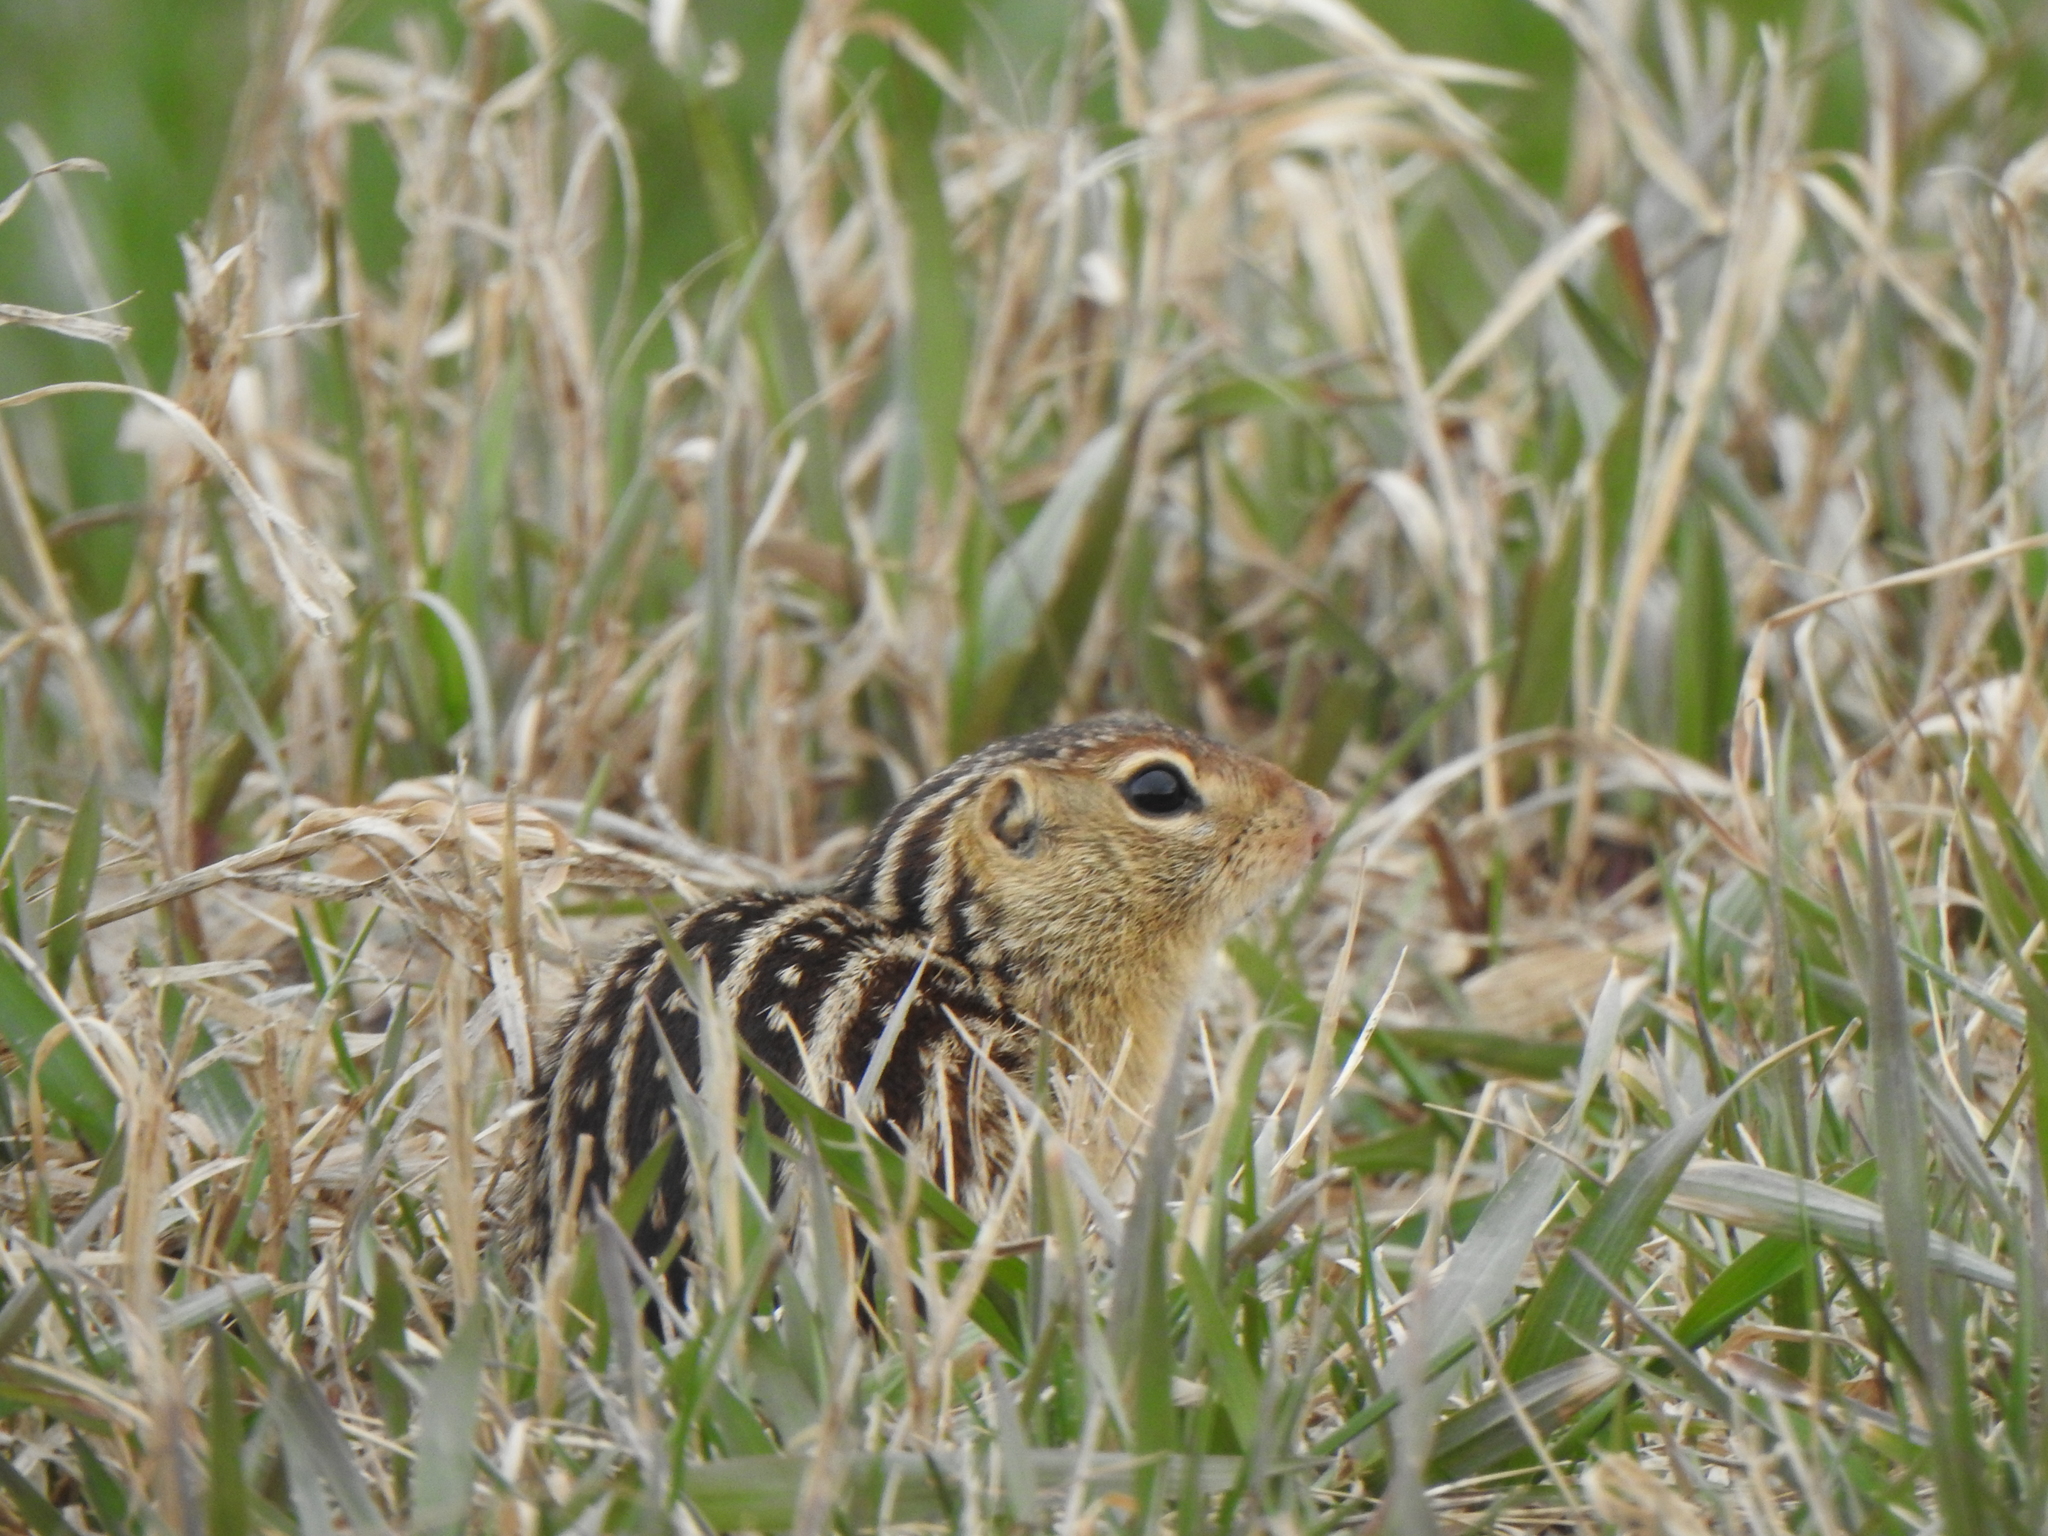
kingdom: Animalia
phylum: Chordata
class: Mammalia
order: Rodentia
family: Sciuridae
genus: Ictidomys
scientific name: Ictidomys tridecemlineatus
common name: Thirteen-lined ground squirrel
